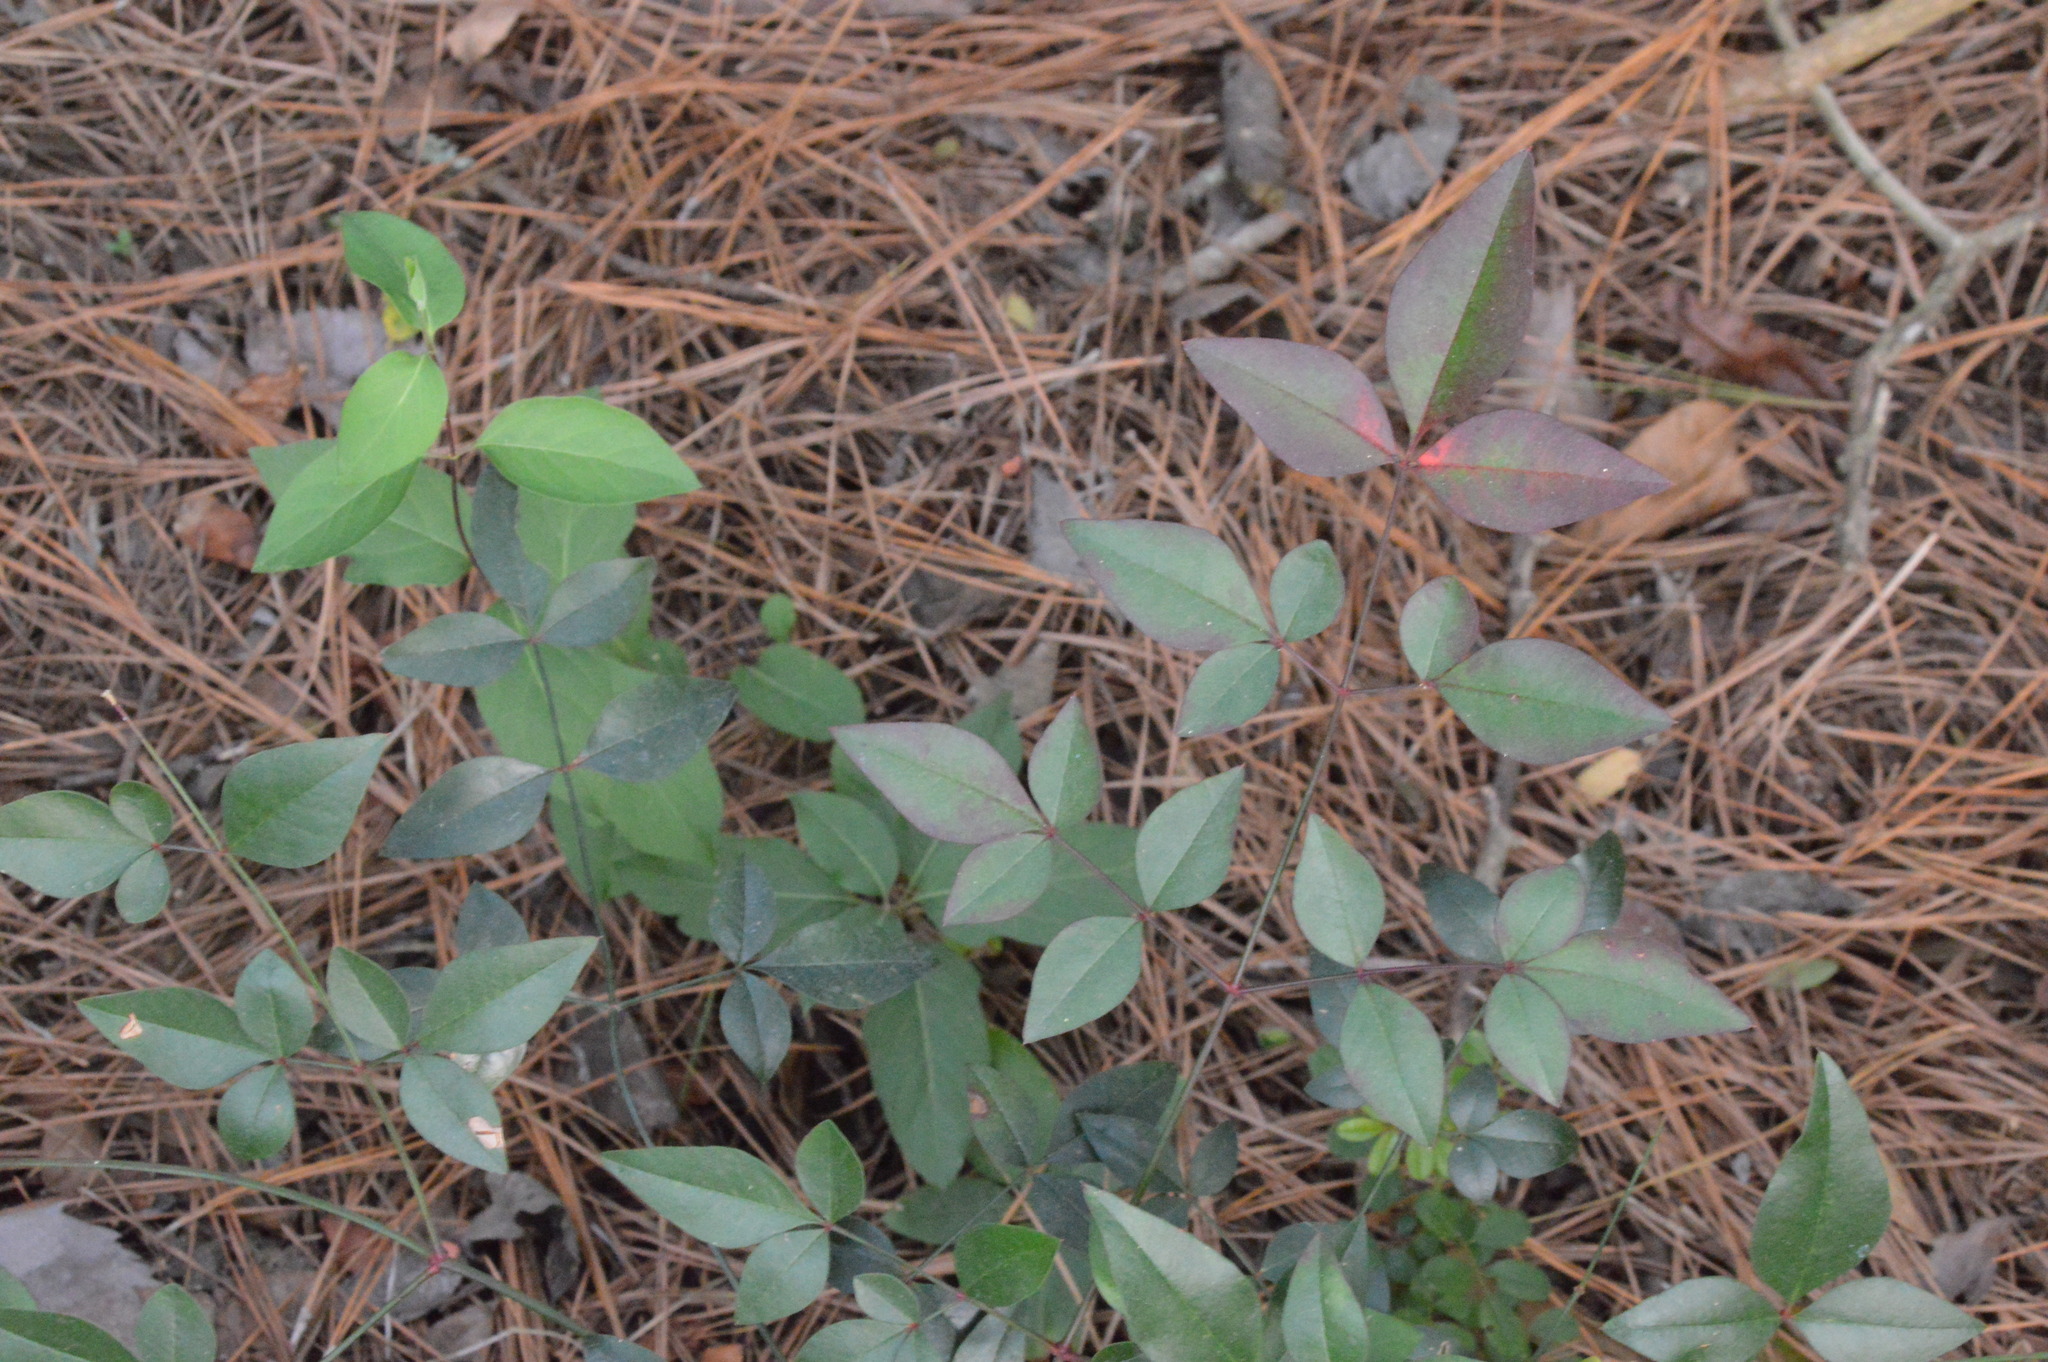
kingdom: Plantae
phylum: Tracheophyta
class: Magnoliopsida
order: Ranunculales
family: Berberidaceae
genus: Nandina
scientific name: Nandina domestica
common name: Sacred bamboo
